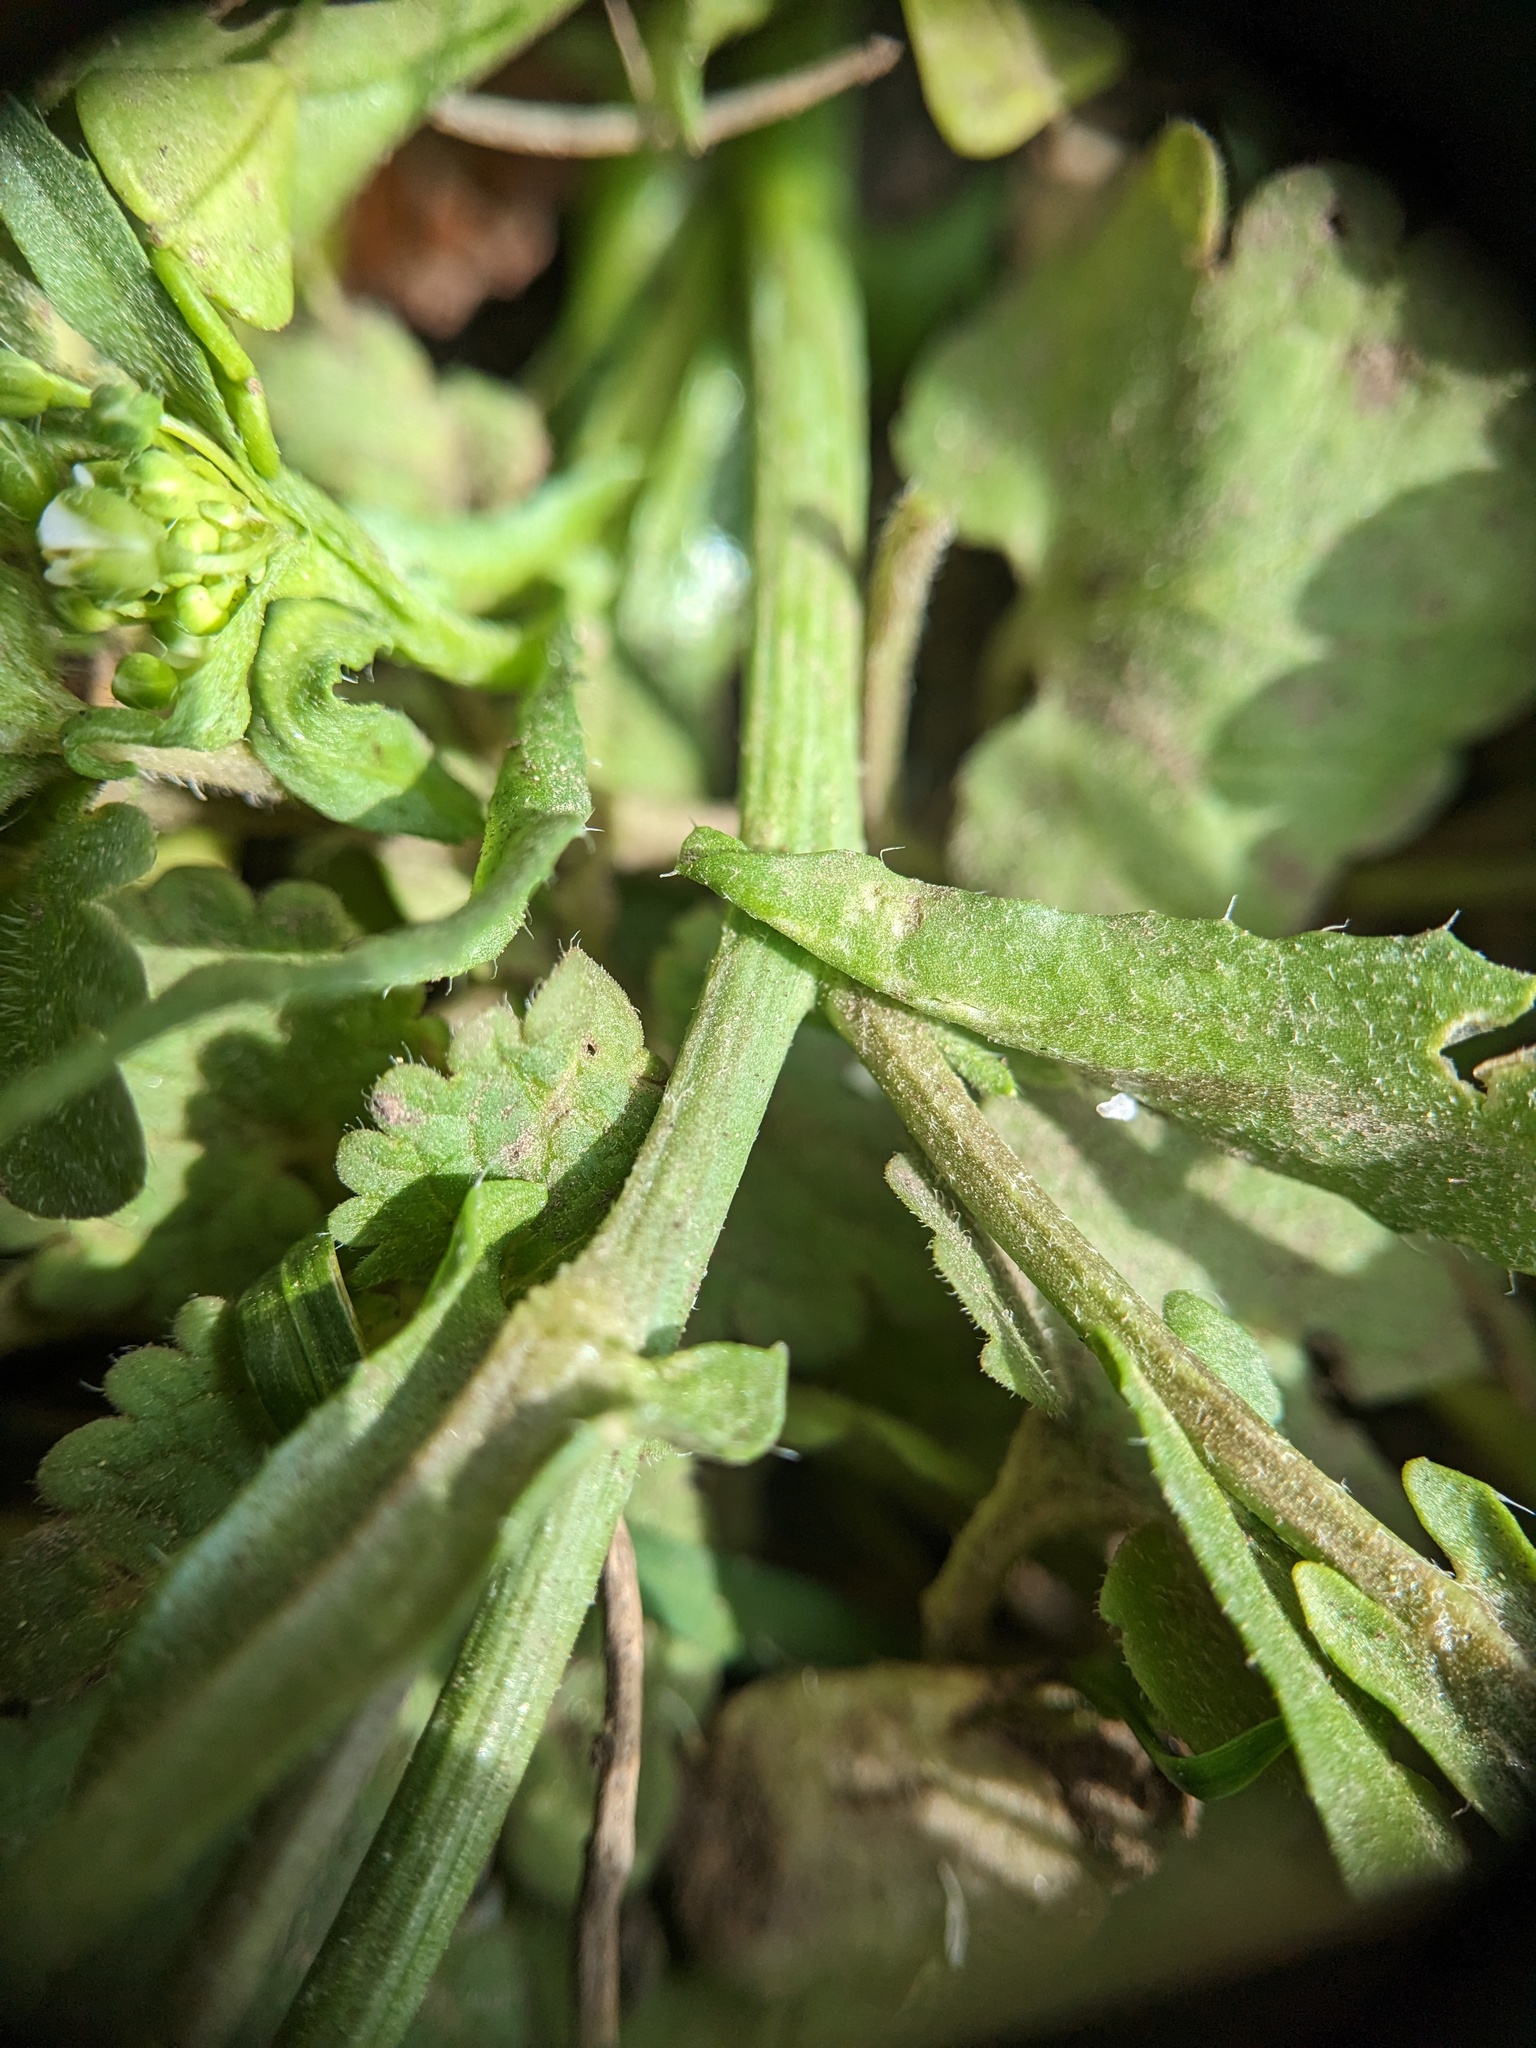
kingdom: Plantae
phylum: Tracheophyta
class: Magnoliopsida
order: Brassicales
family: Brassicaceae
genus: Capsella
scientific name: Capsella bursa-pastoris
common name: Shepherd's purse
